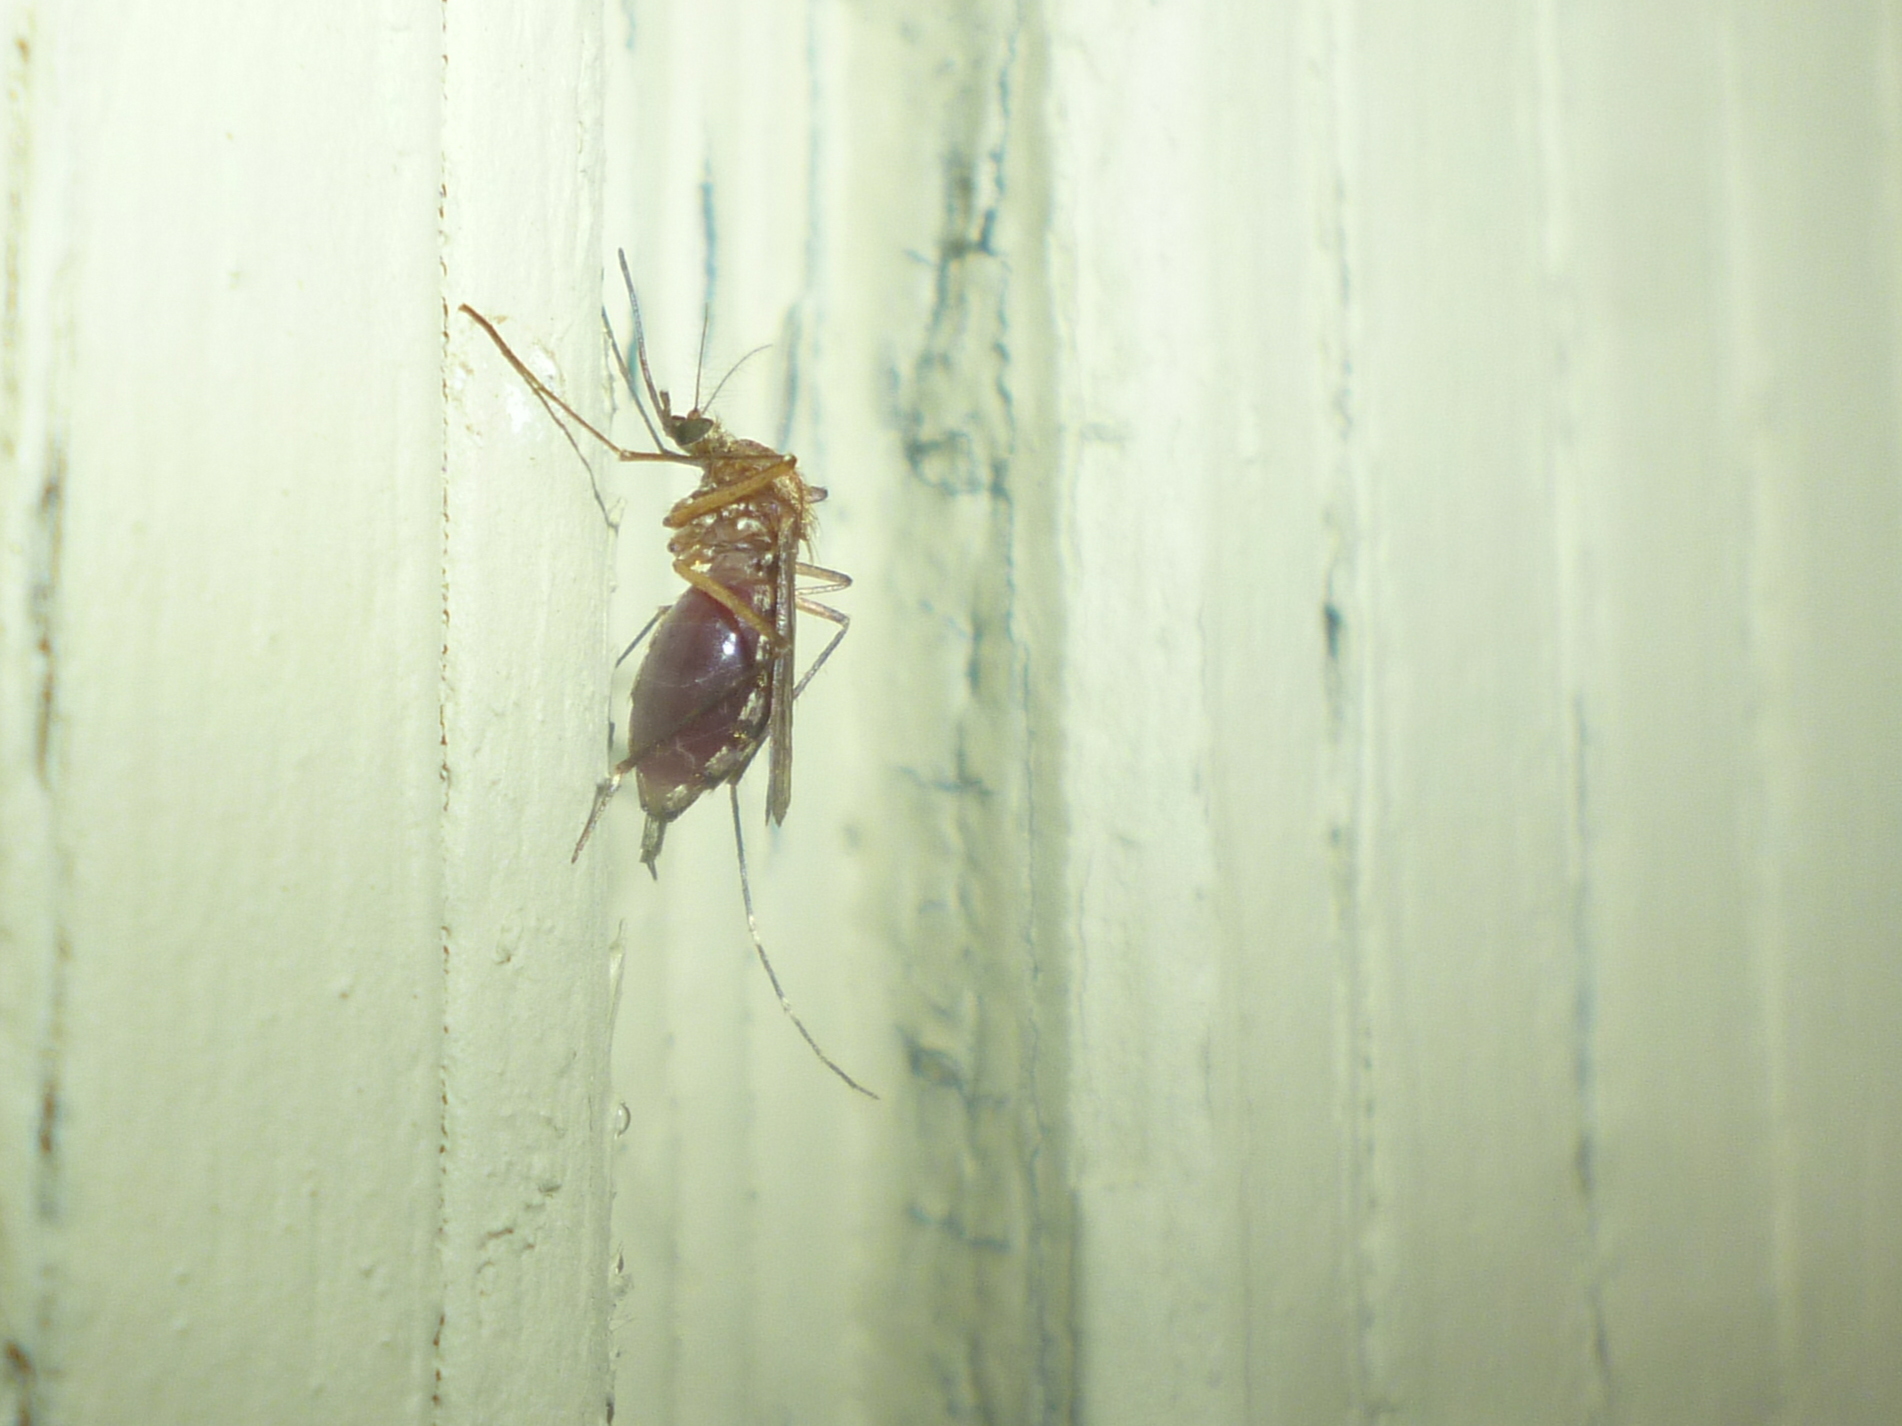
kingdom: Animalia
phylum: Arthropoda
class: Insecta
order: Diptera
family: Culicidae
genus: Aedes
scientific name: Aedes canadensis
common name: Woodland pool mosquito
